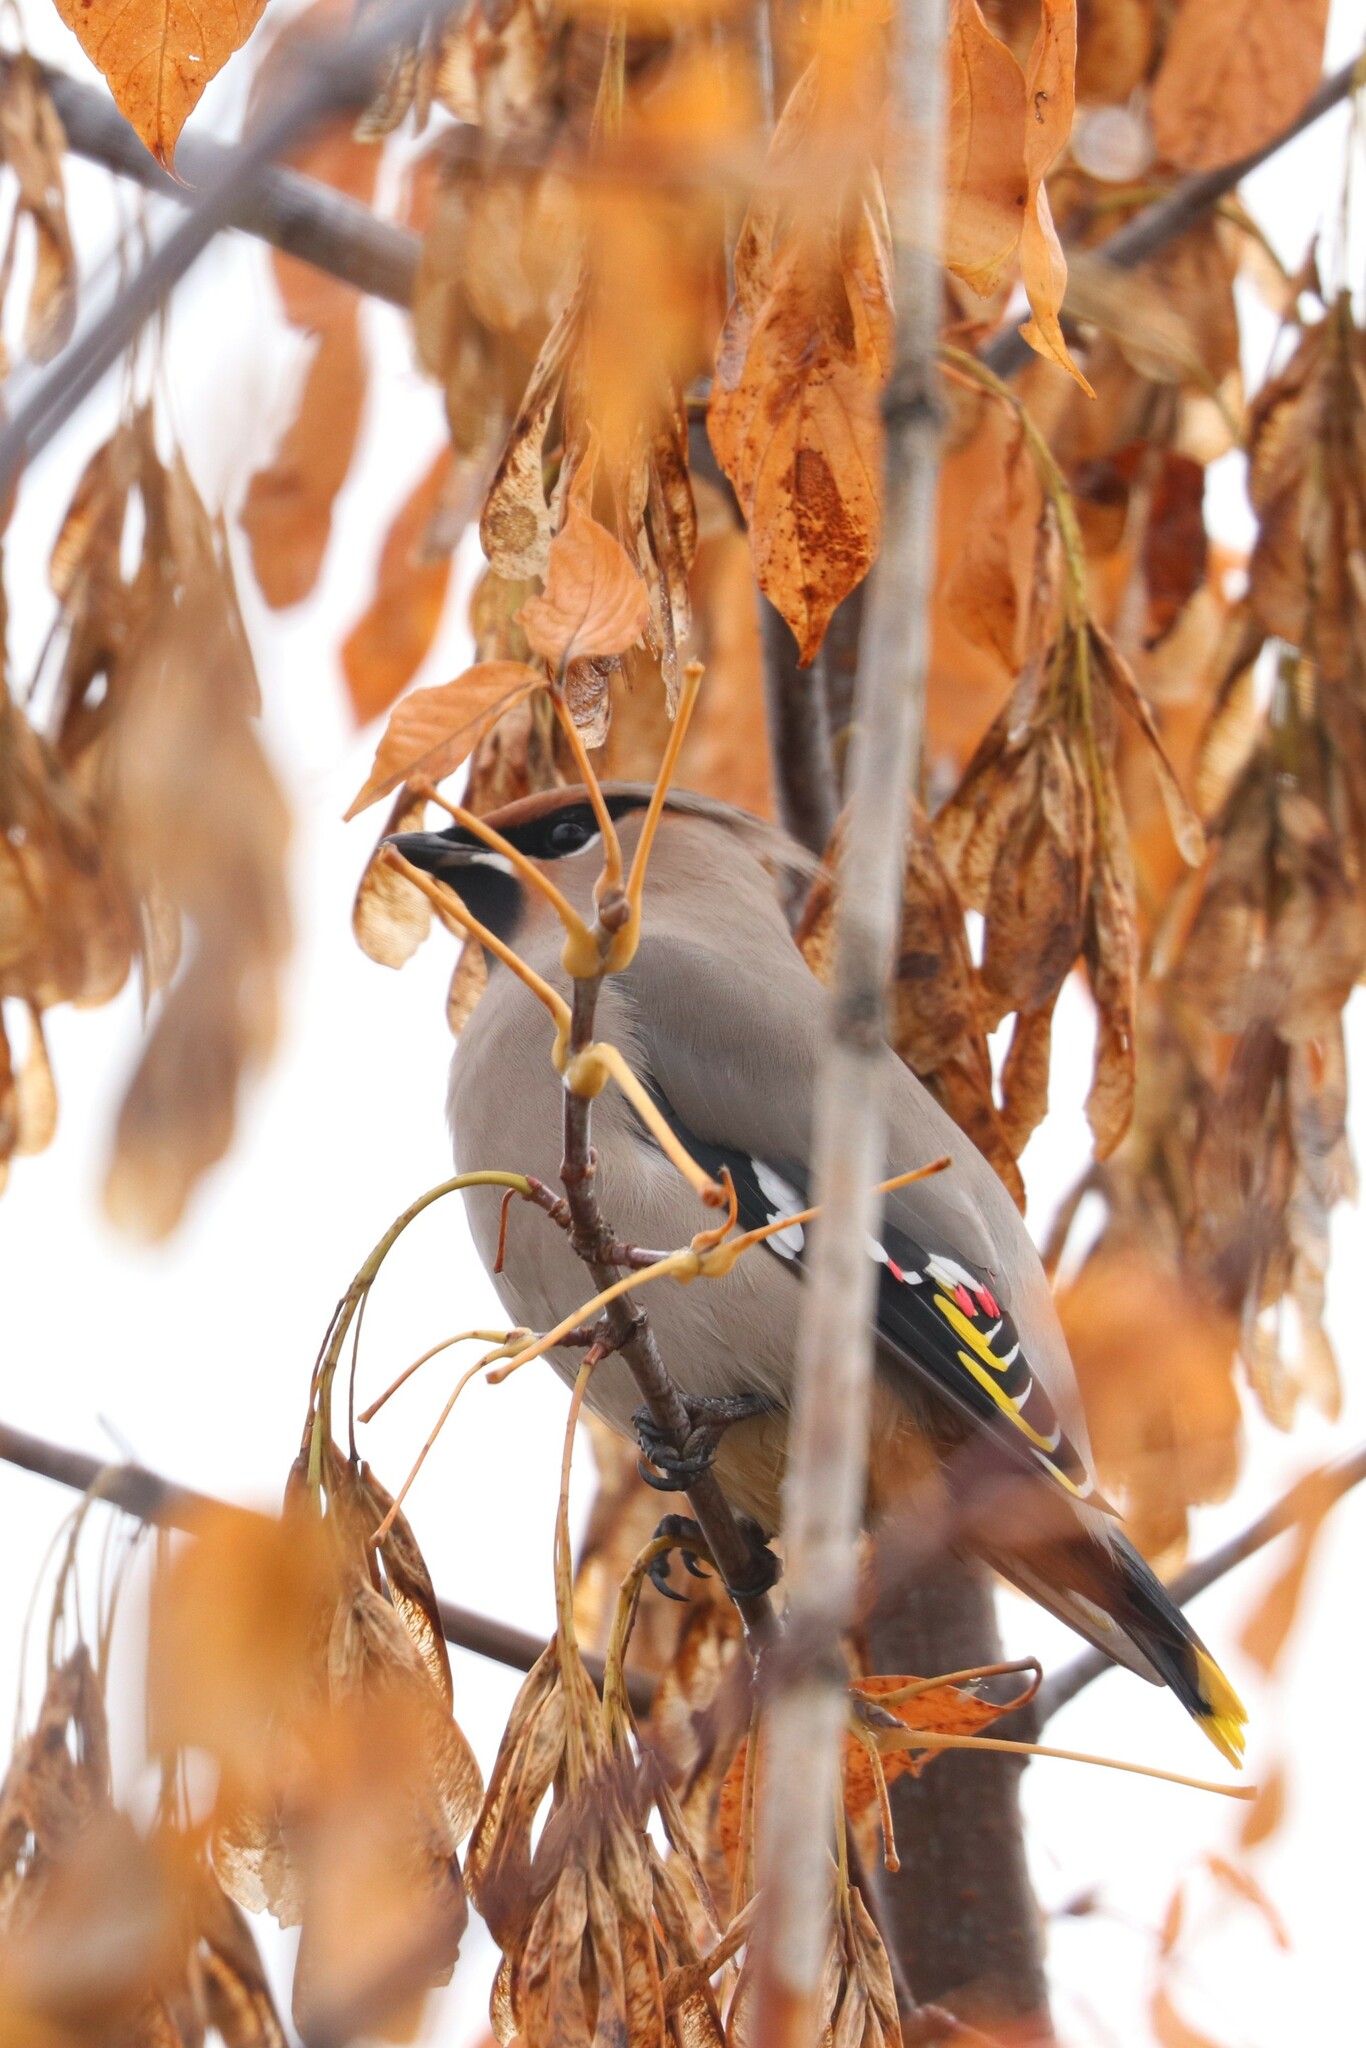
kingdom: Animalia
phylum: Chordata
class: Aves
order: Passeriformes
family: Bombycillidae
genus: Bombycilla
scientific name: Bombycilla garrulus
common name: Bohemian waxwing
